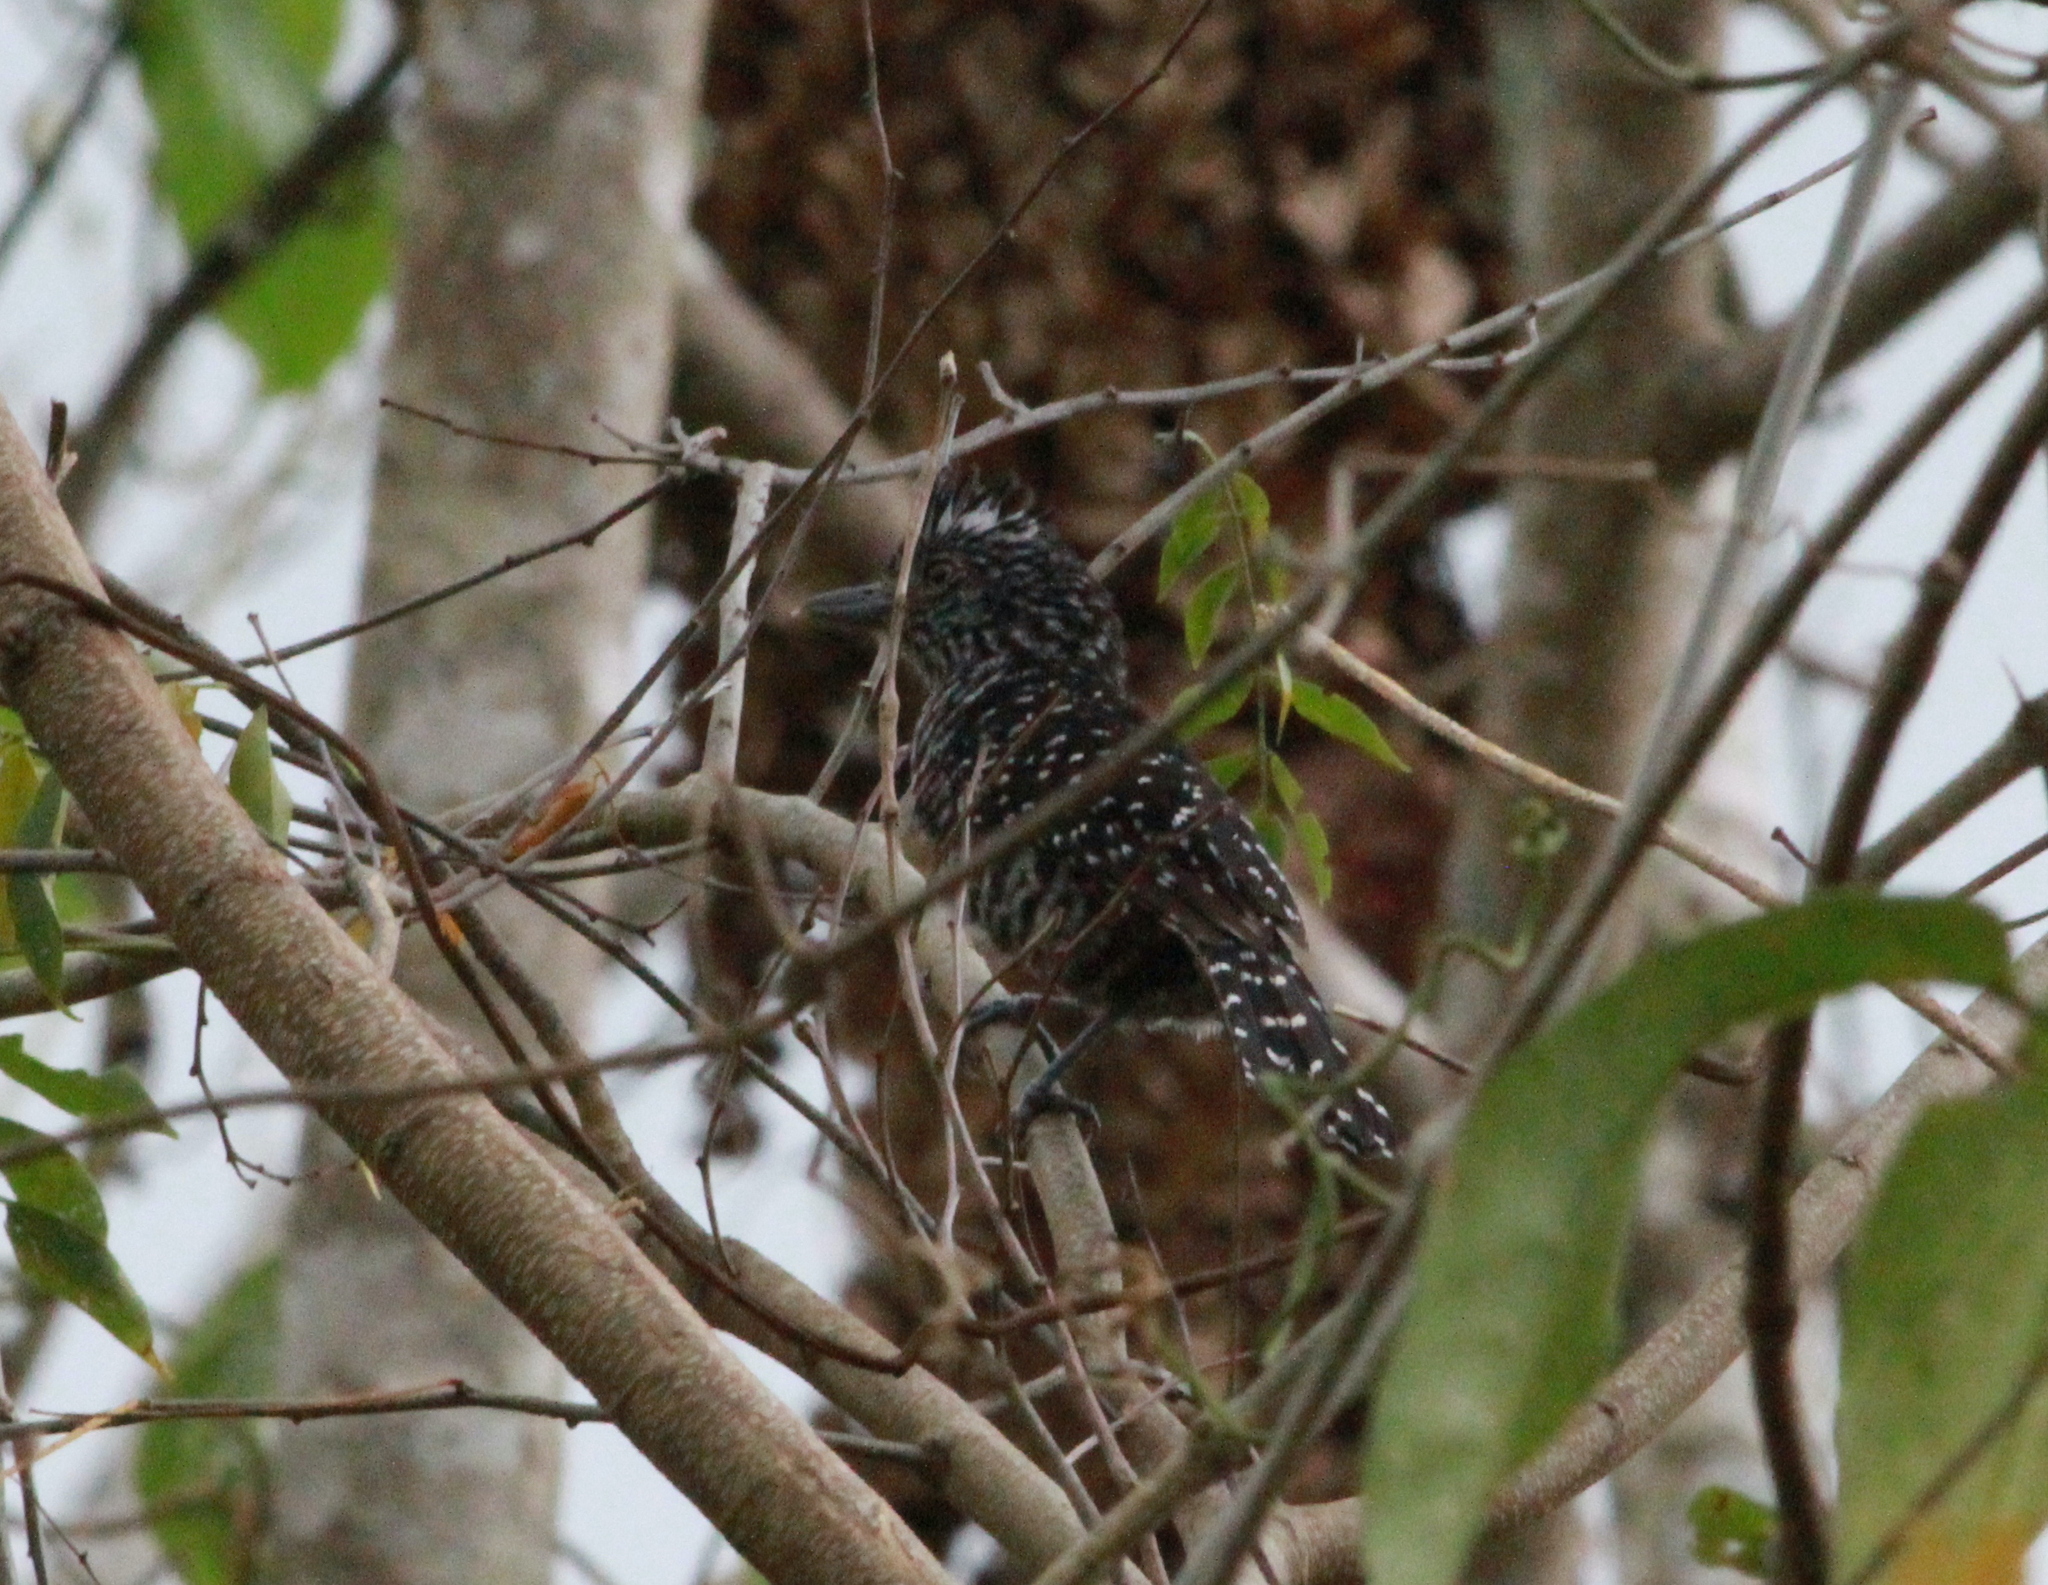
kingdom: Animalia
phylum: Chordata
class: Aves
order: Passeriformes
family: Thamnophilidae
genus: Thamnophilus
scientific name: Thamnophilus doliatus
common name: Barred antshrike
